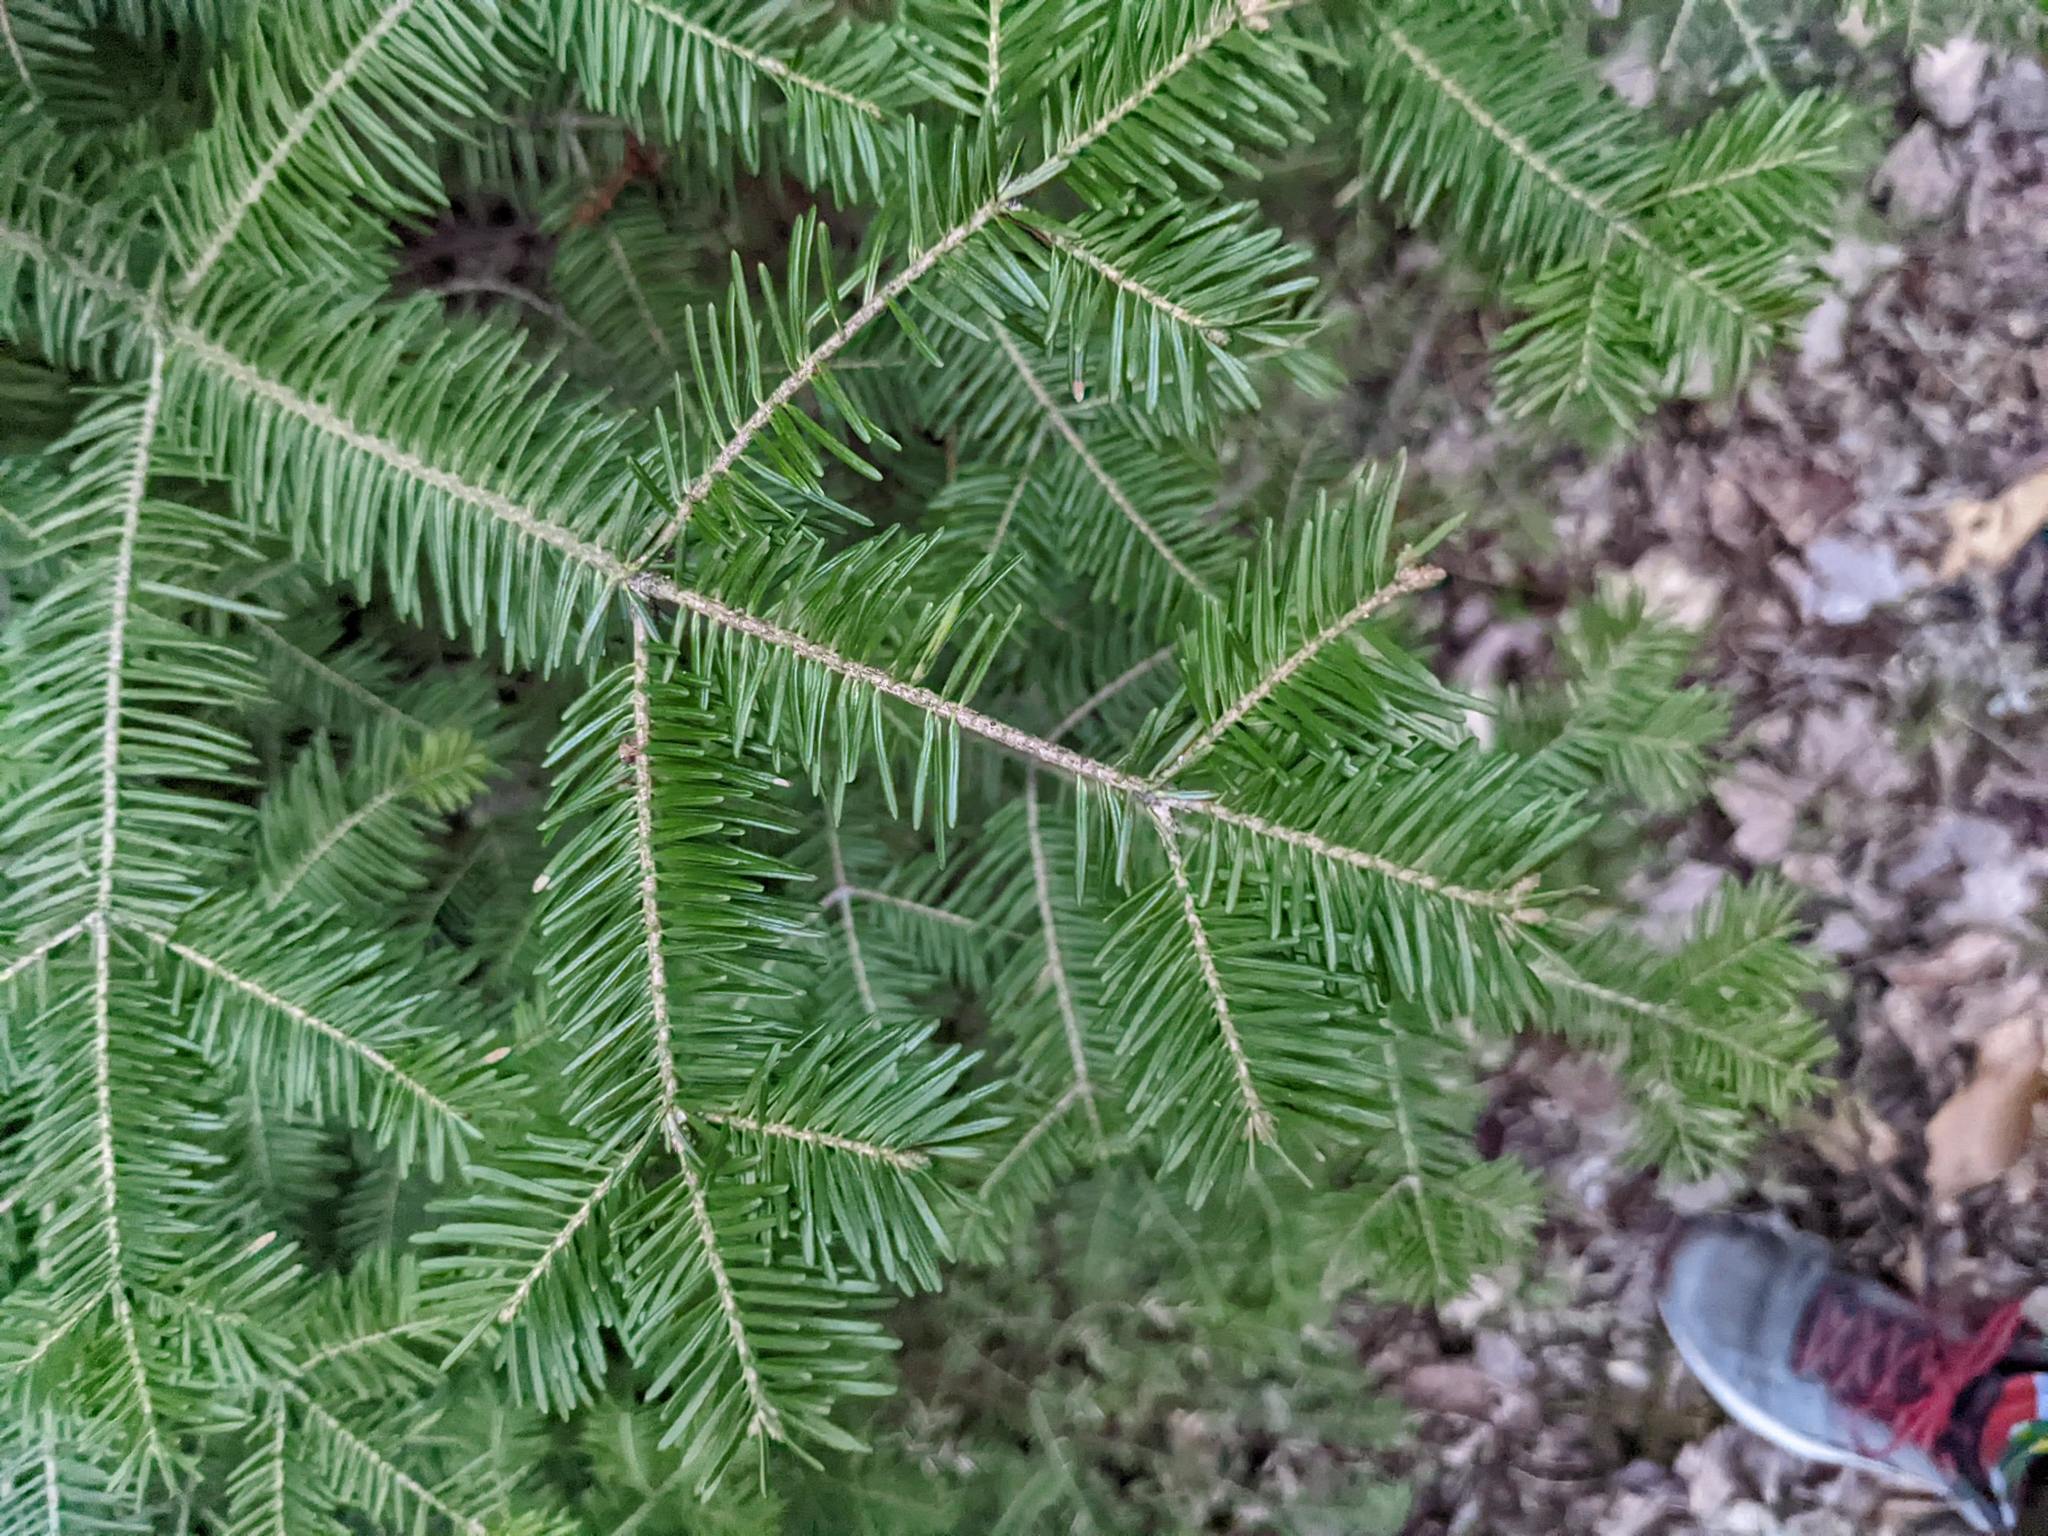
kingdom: Plantae
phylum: Tracheophyta
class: Pinopsida
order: Pinales
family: Pinaceae
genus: Abies
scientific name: Abies balsamea
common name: Balsam fir
